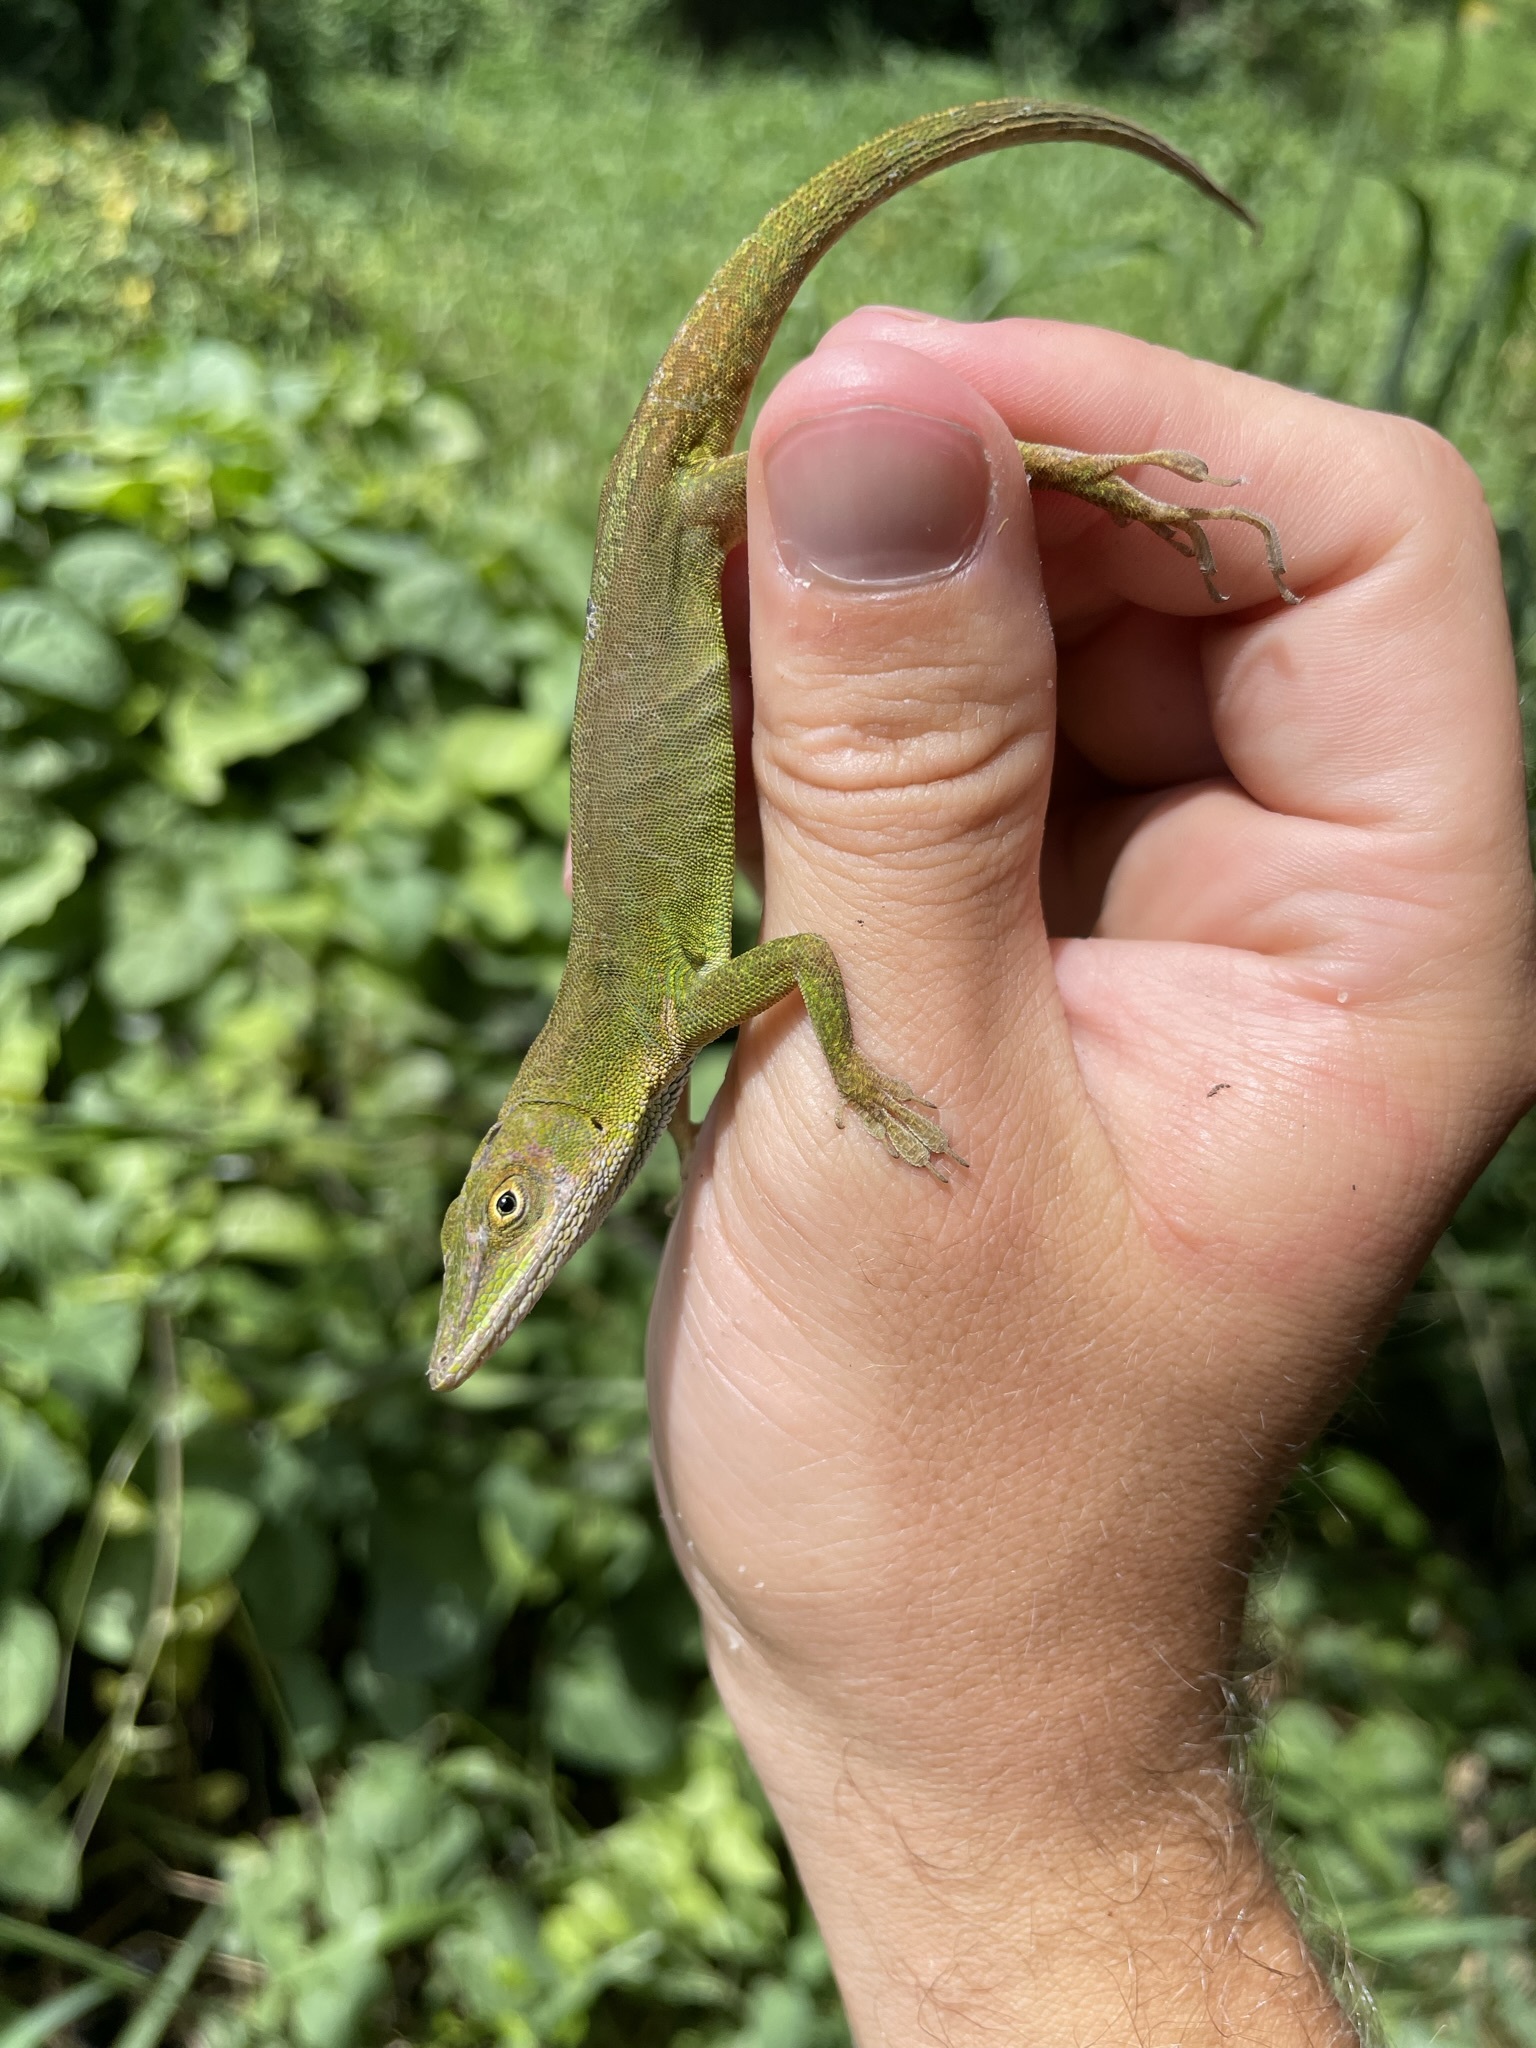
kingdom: Animalia
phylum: Chordata
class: Squamata
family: Dactyloidae
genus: Anolis
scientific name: Anolis chlorocyanus
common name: Hispaniolan green anole
